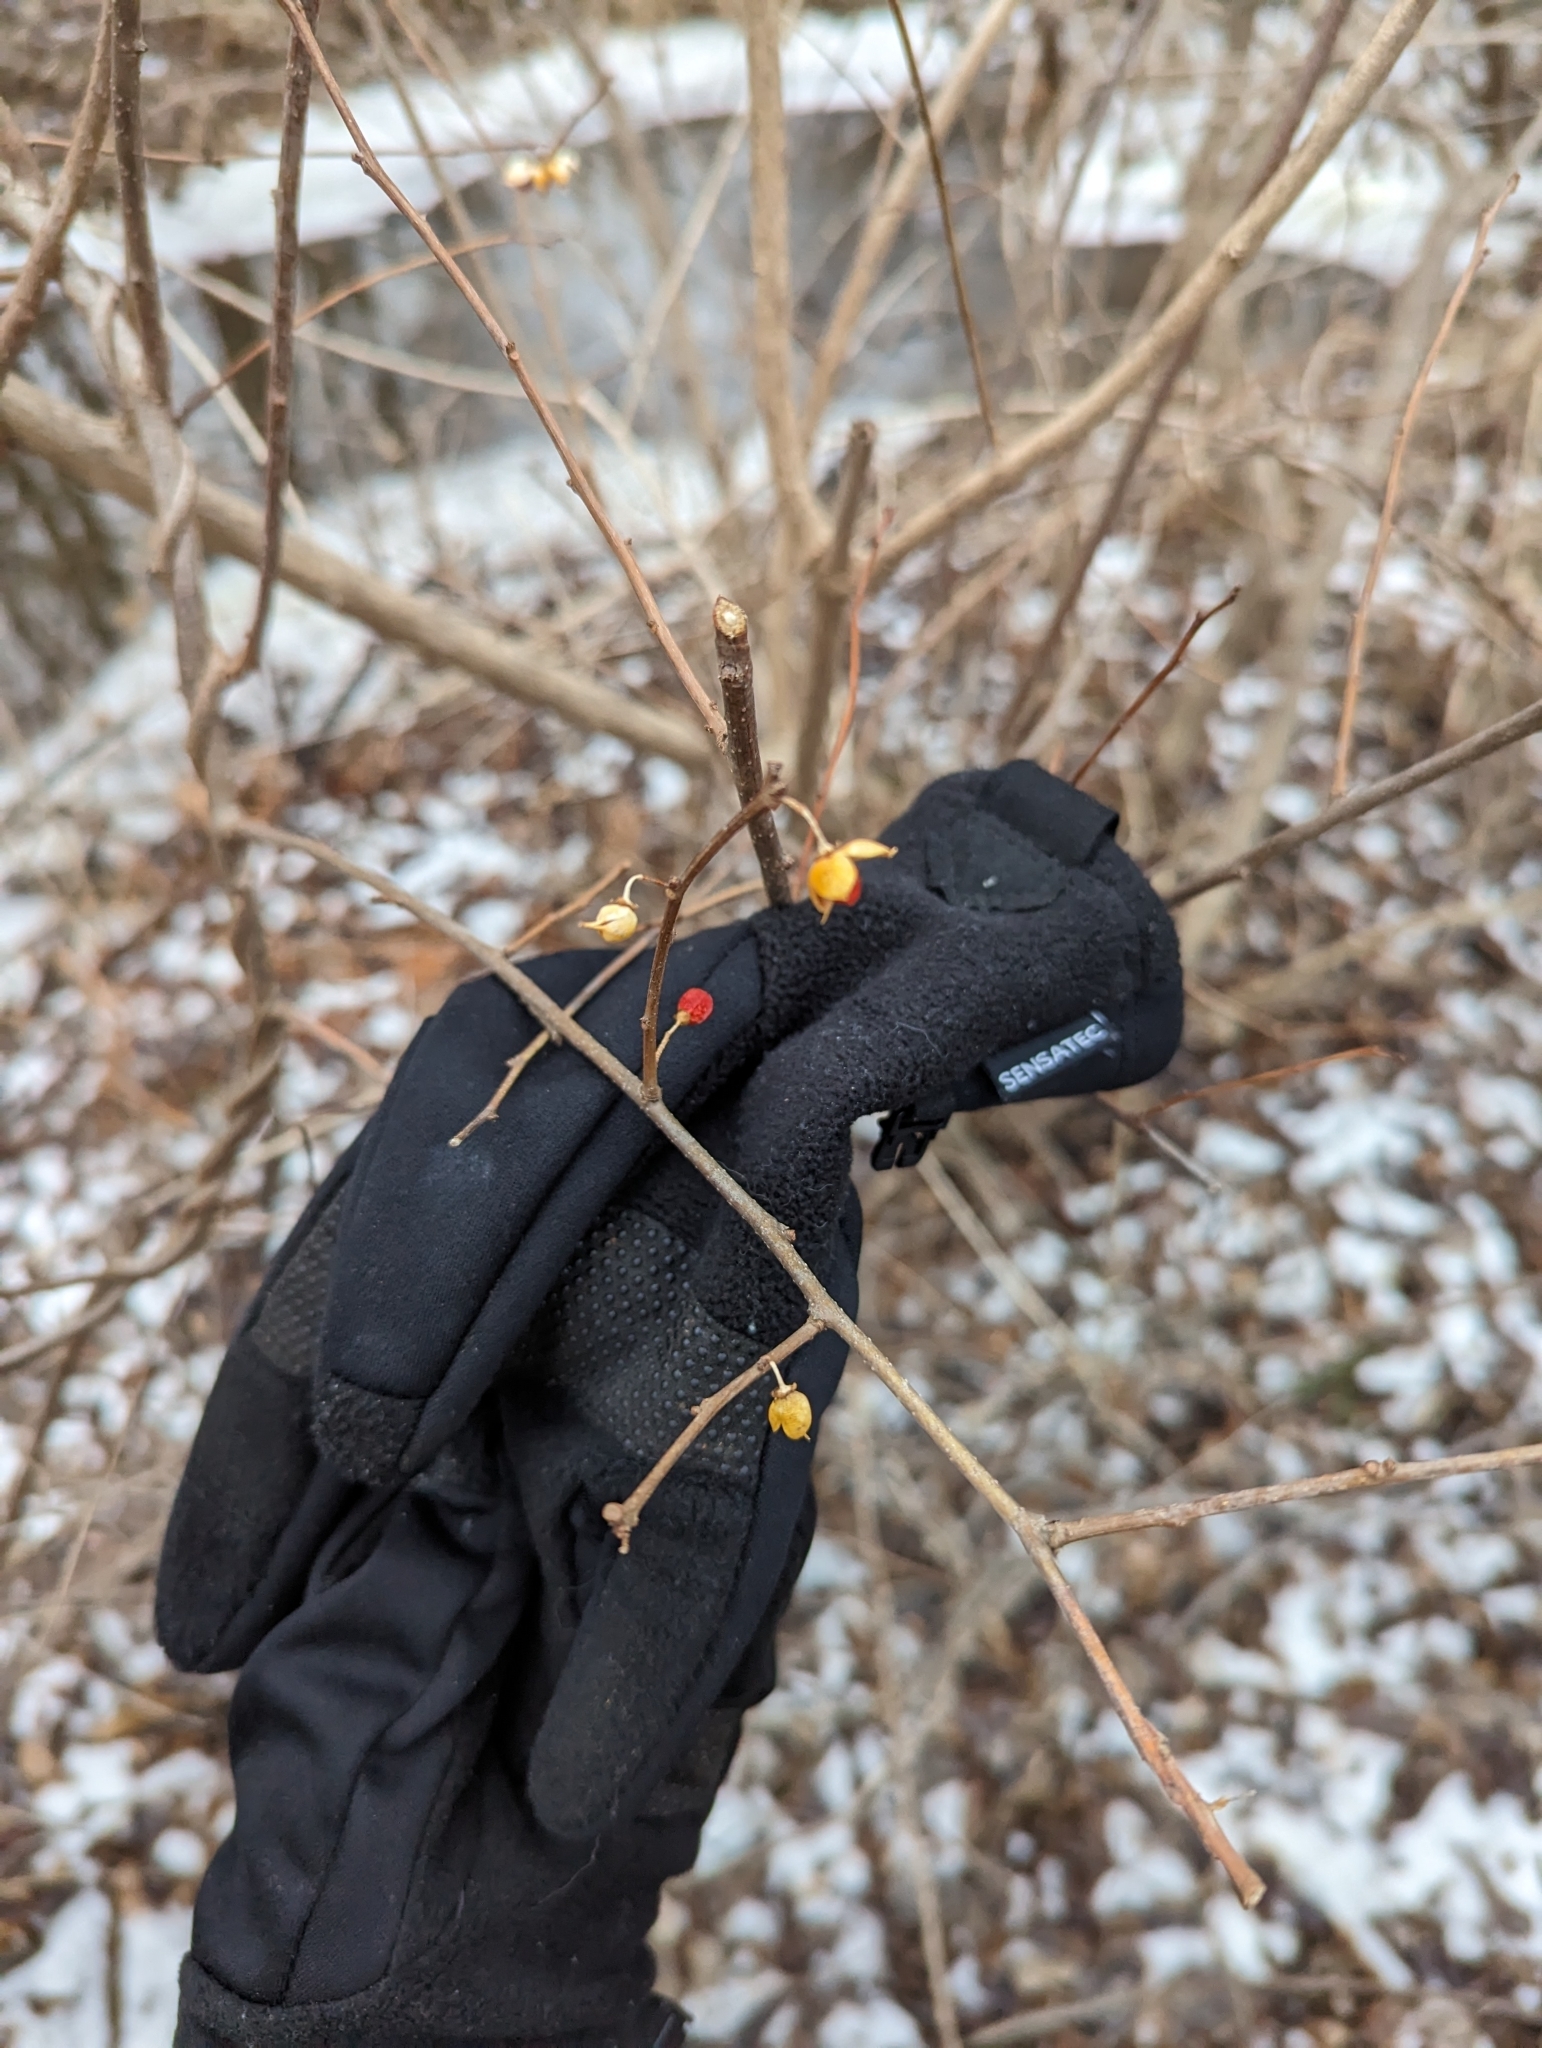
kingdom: Plantae
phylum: Tracheophyta
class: Magnoliopsida
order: Celastrales
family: Celastraceae
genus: Celastrus
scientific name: Celastrus orbiculatus
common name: Oriental bittersweet
